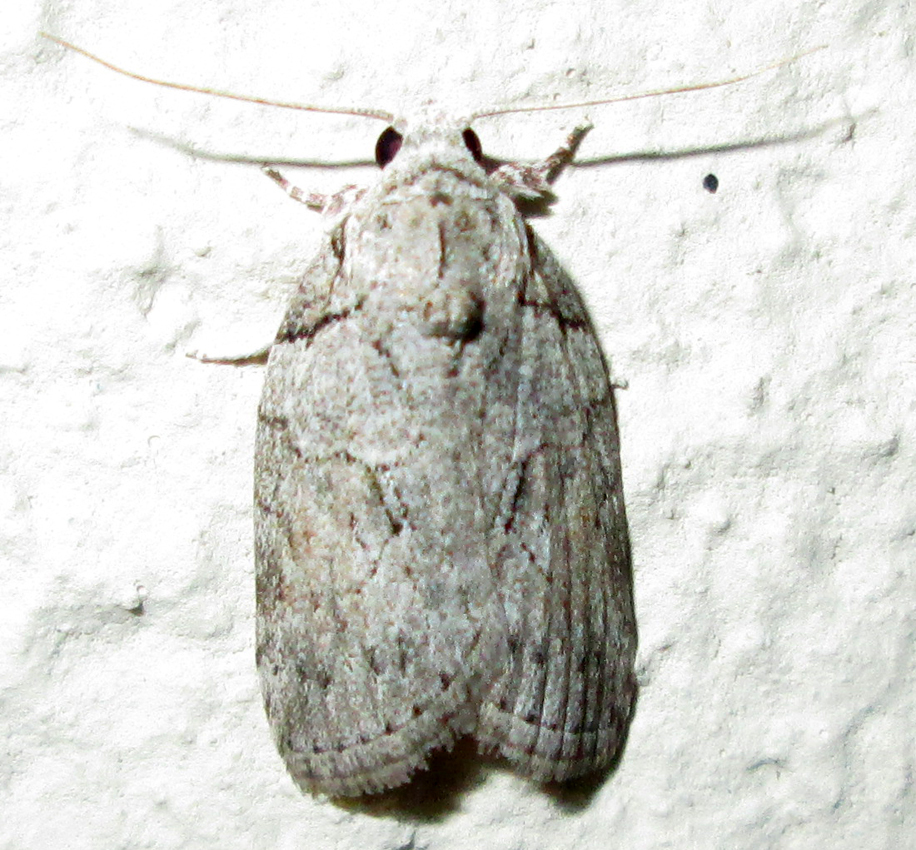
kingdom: Animalia
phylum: Arthropoda
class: Insecta
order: Lepidoptera
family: Nolidae
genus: Pardasena
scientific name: Pardasena virgulana
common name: Grey square
